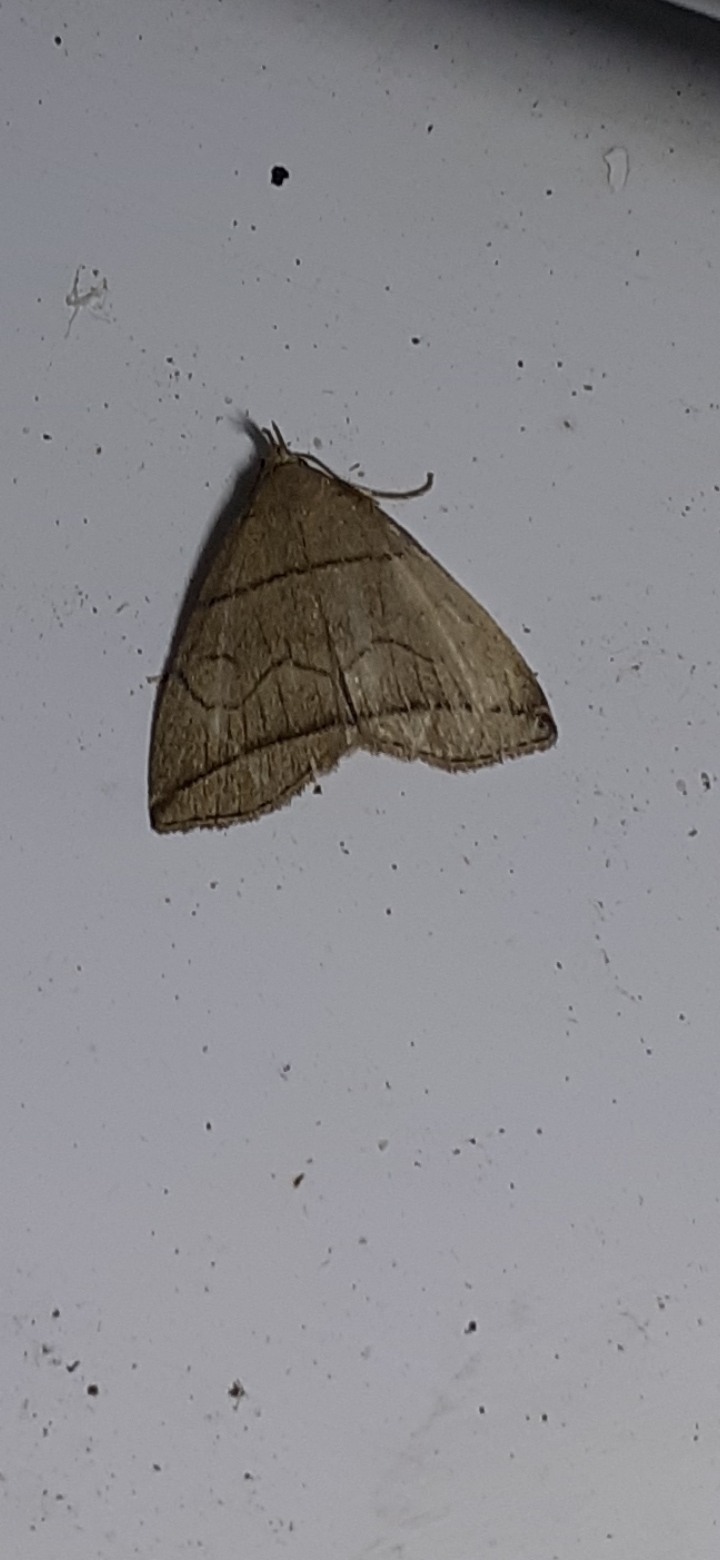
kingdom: Animalia
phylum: Arthropoda
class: Insecta
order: Lepidoptera
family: Erebidae
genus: Herminia
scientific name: Herminia grisealis
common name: Small fan-foot
